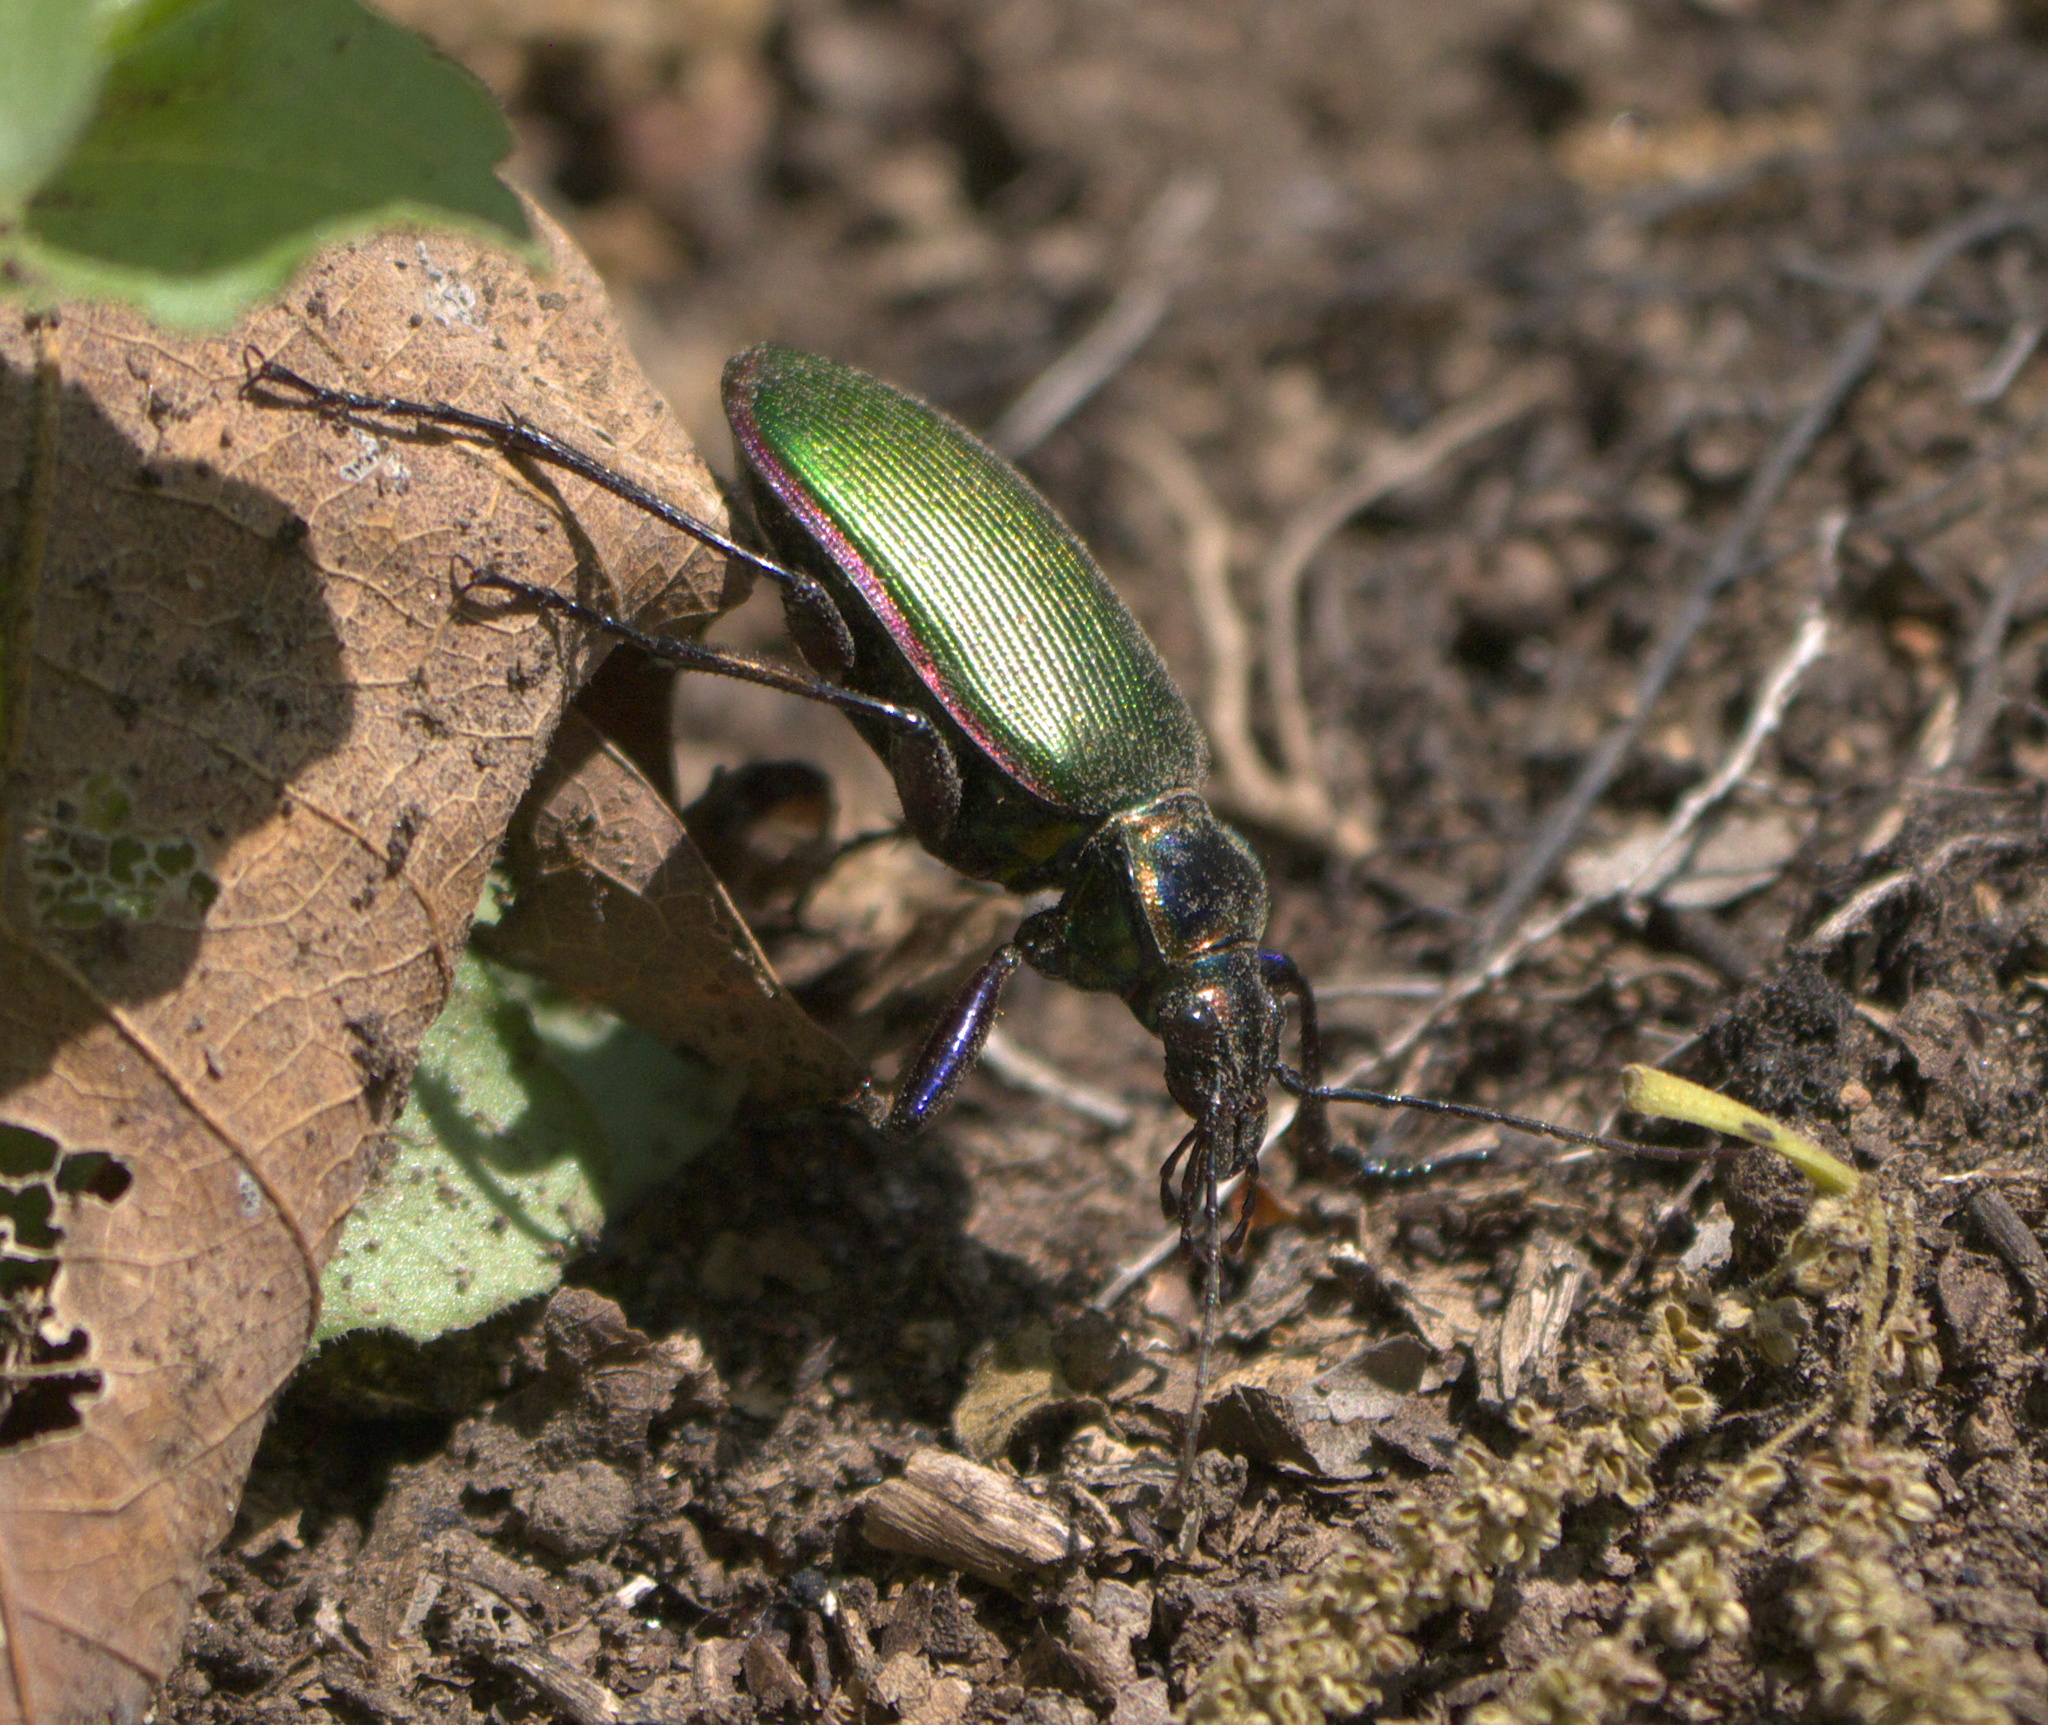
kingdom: Animalia
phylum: Arthropoda
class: Insecta
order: Coleoptera
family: Carabidae
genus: Calosoma
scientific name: Calosoma scrutator
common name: Fiery searcher beetle
